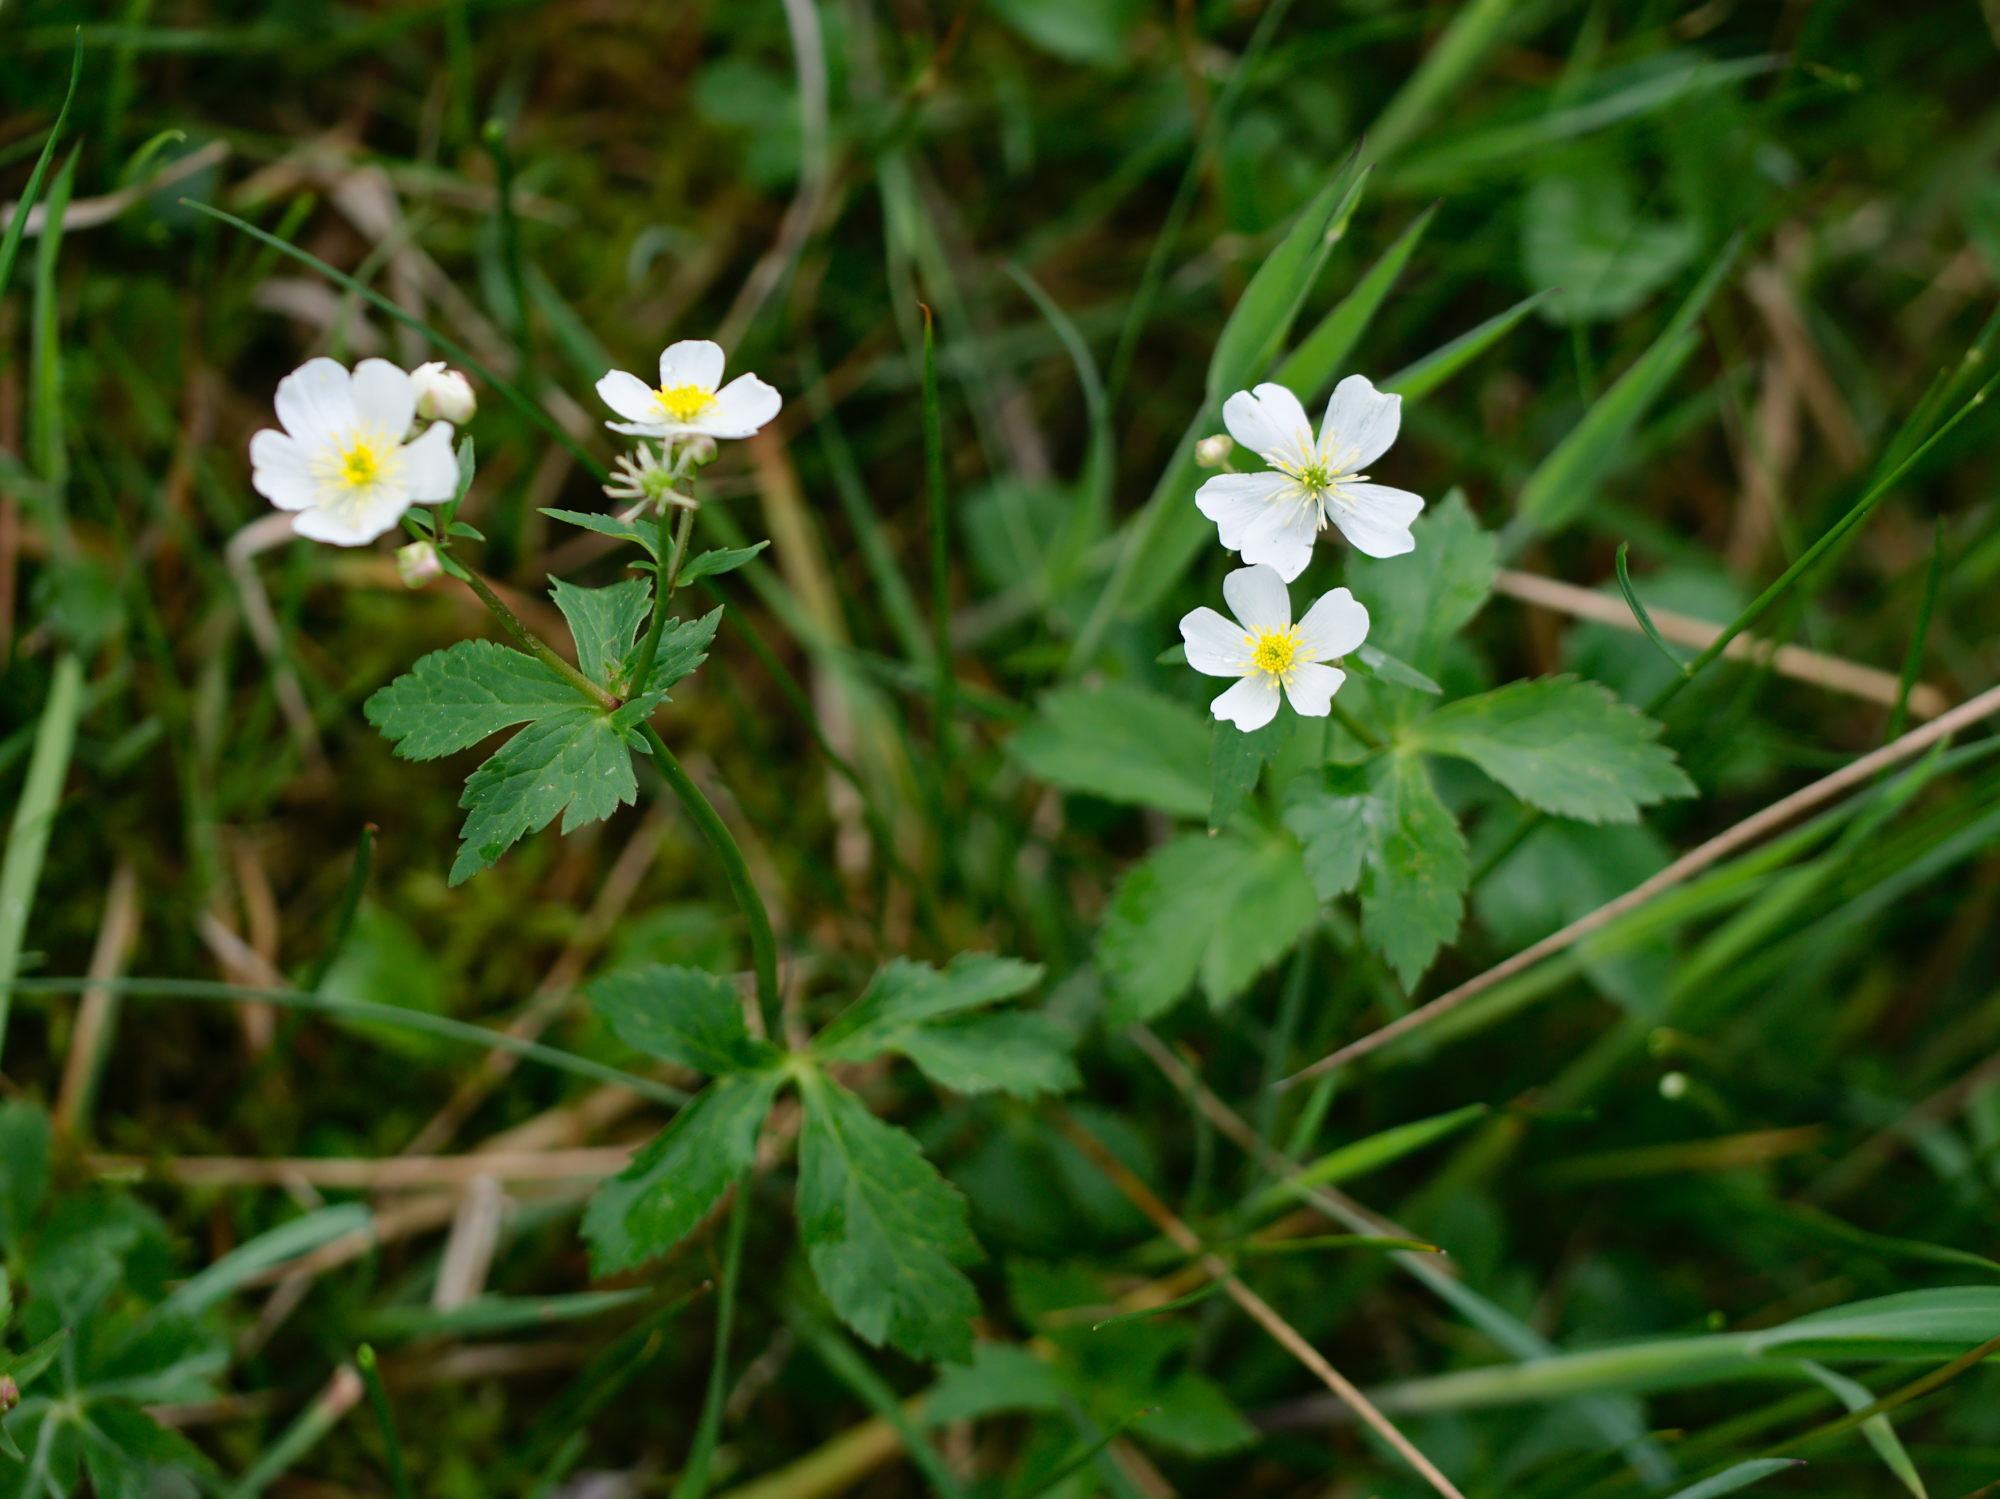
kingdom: Plantae
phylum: Tracheophyta
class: Magnoliopsida
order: Ranunculales
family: Ranunculaceae
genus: Ranunculus
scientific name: Ranunculus aconitifolius
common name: Aconite-leaved buttercup
